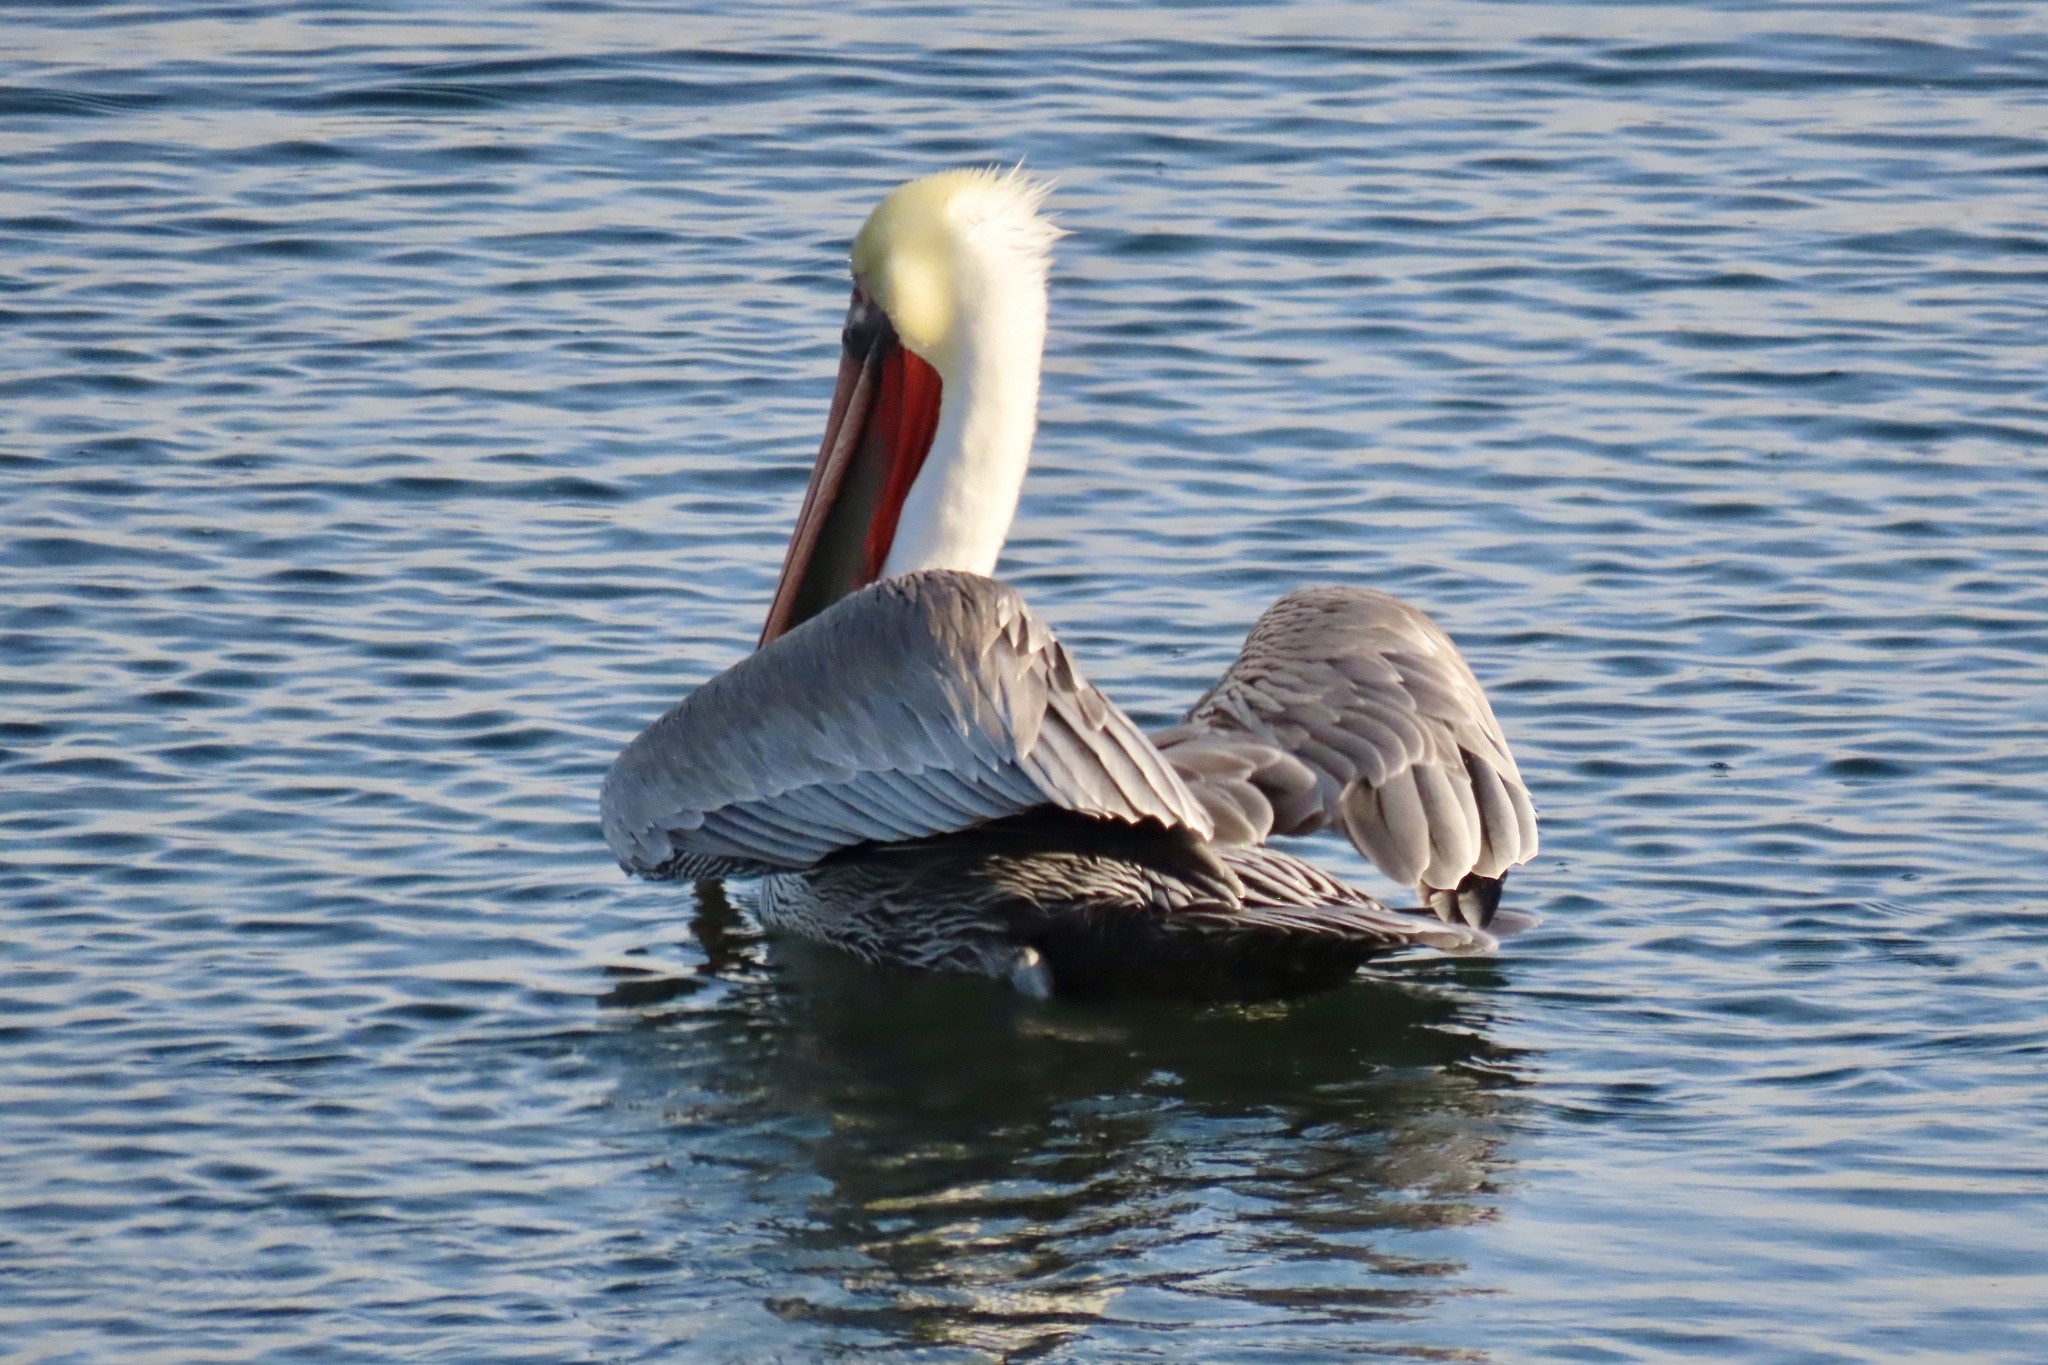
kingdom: Animalia
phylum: Chordata
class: Aves
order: Pelecaniformes
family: Pelecanidae
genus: Pelecanus
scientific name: Pelecanus occidentalis
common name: Brown pelican
